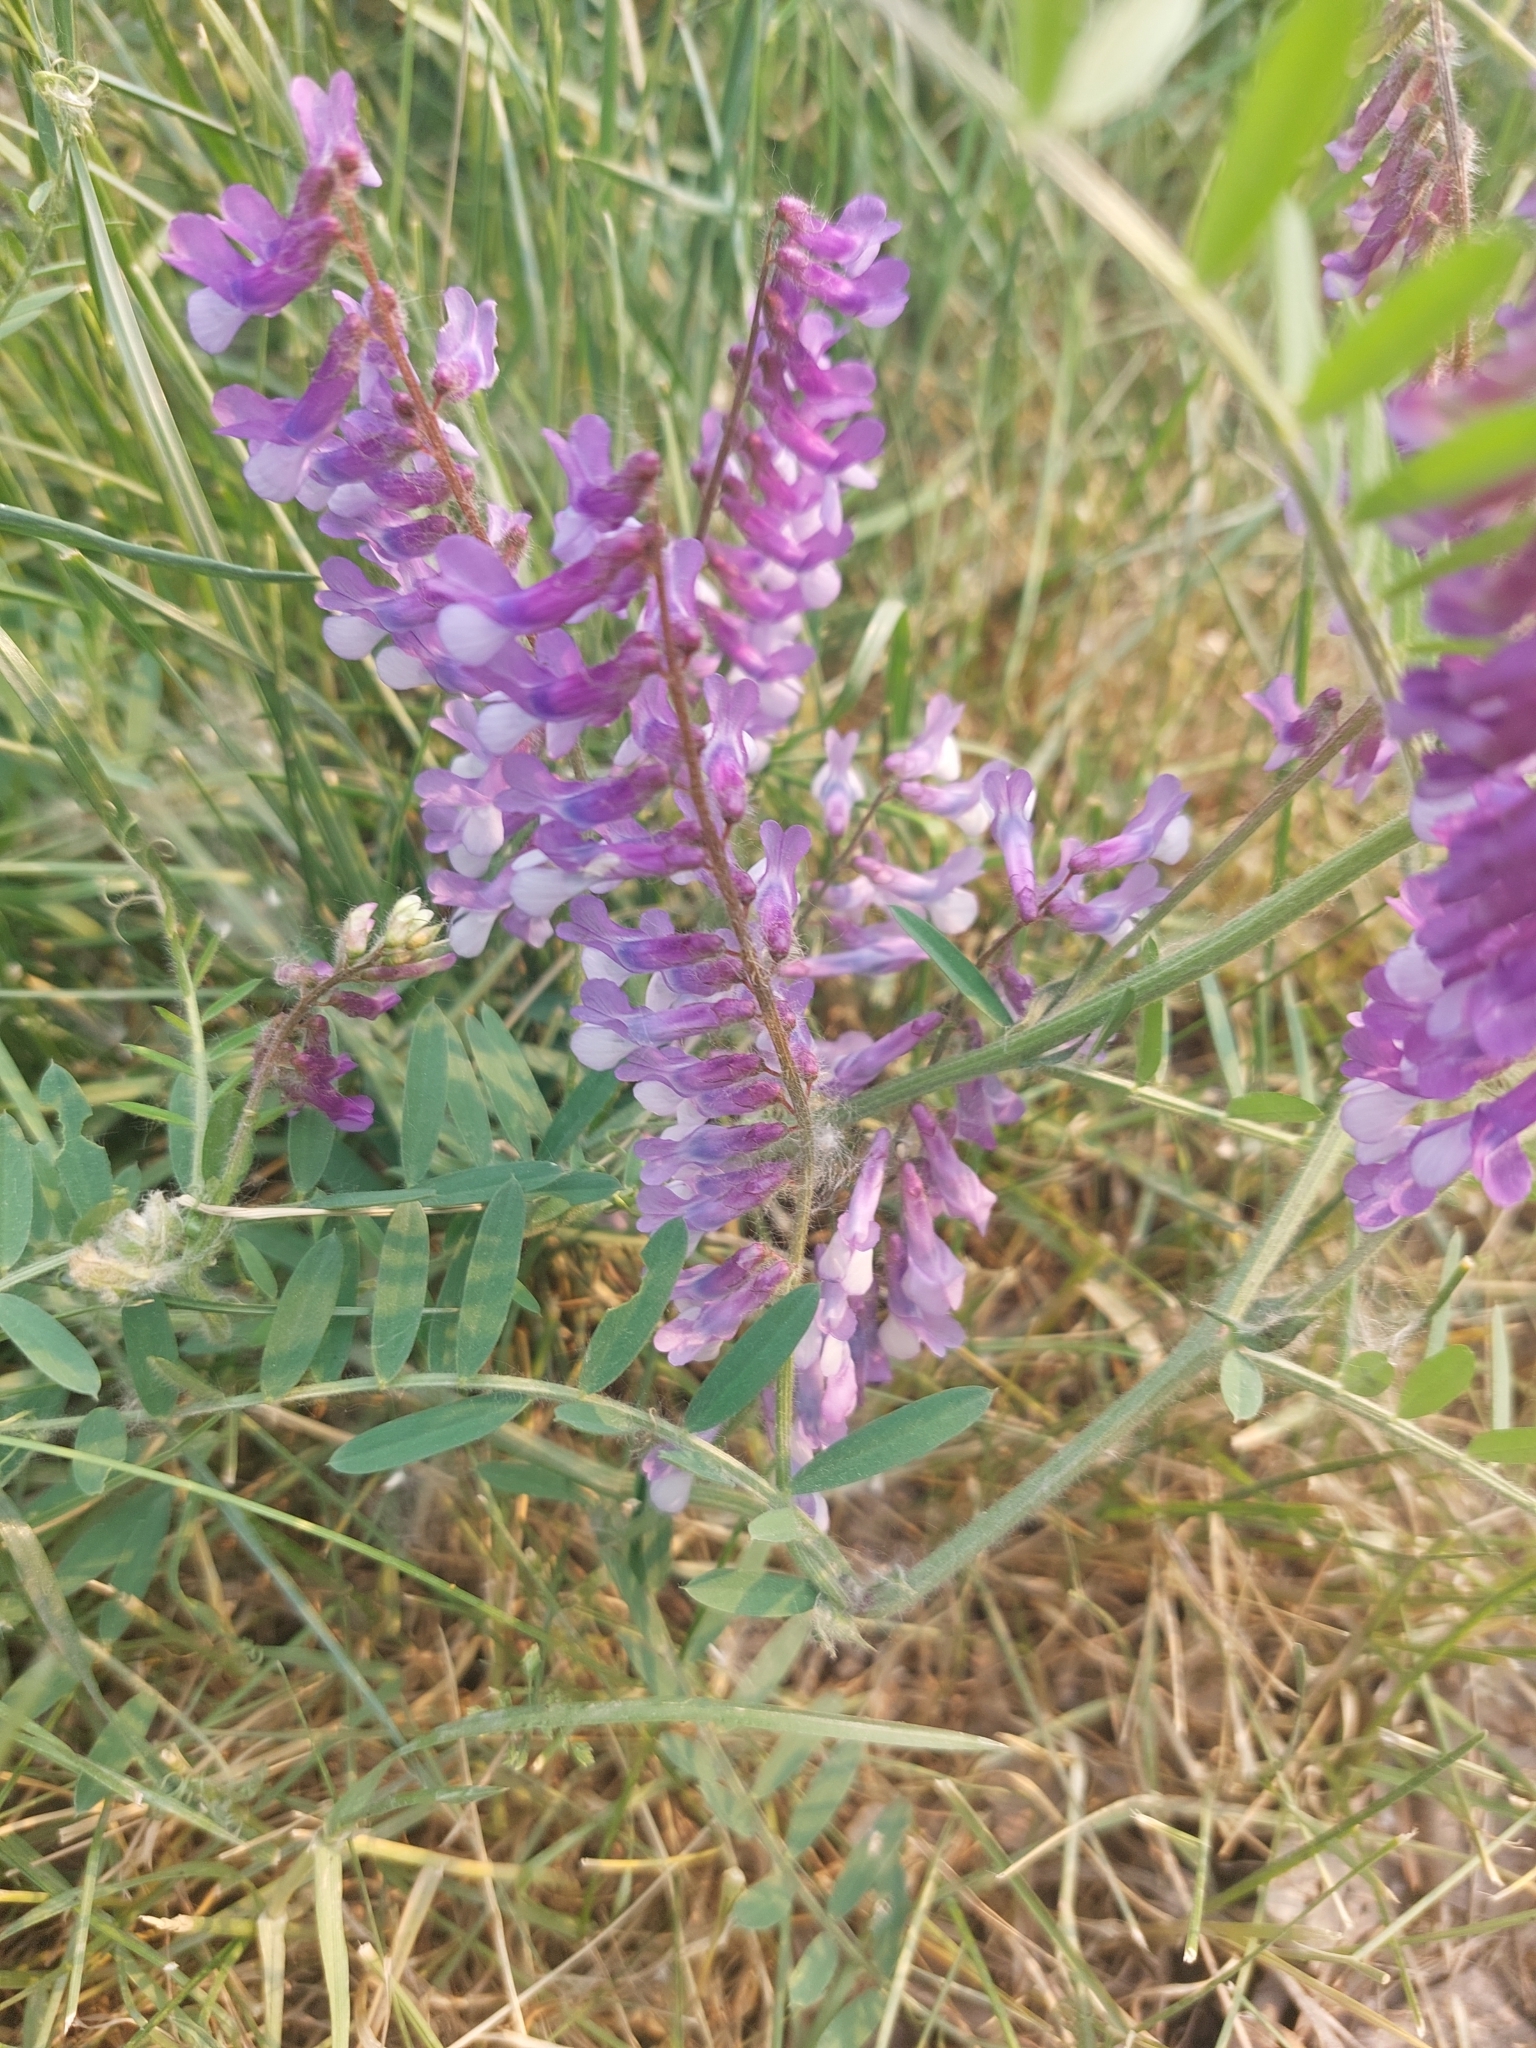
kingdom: Plantae
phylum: Tracheophyta
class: Magnoliopsida
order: Fabales
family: Fabaceae
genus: Vicia
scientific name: Vicia villosa
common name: Fodder vetch
